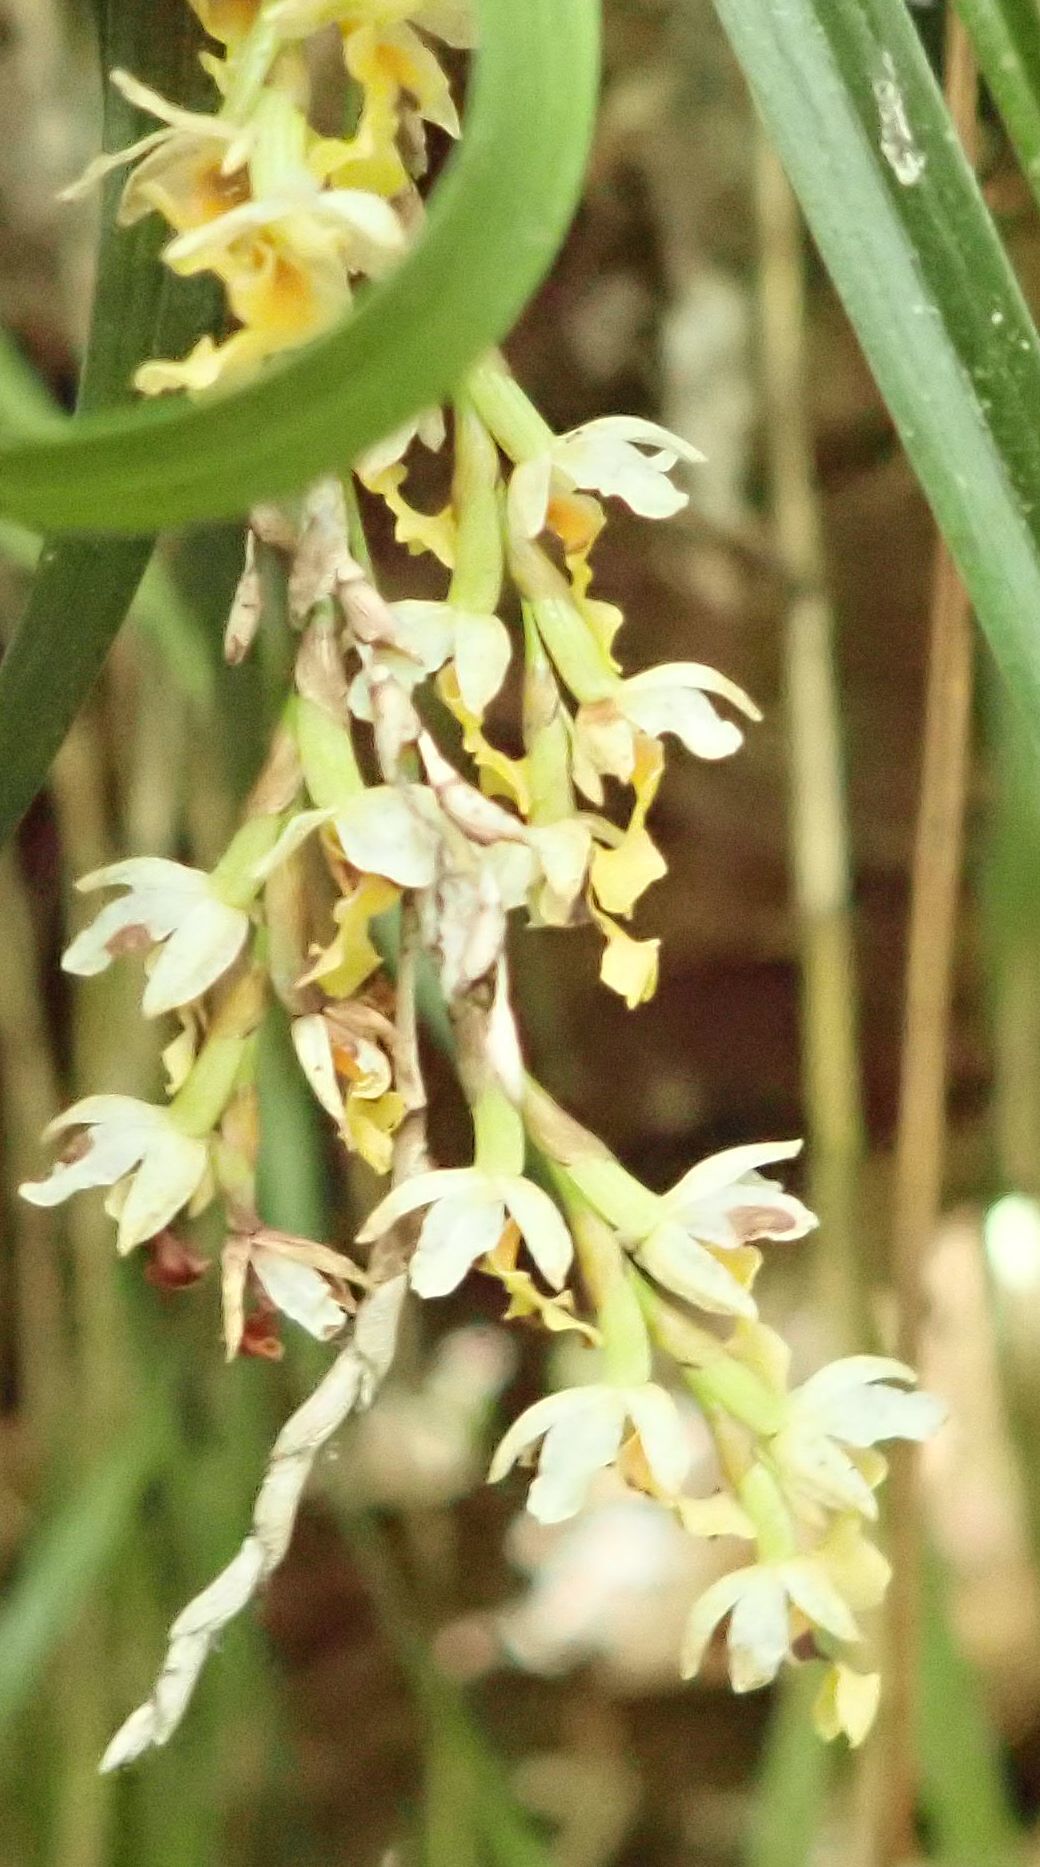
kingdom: Plantae
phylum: Tracheophyta
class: Liliopsida
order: Asparagales
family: Orchidaceae
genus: Earina
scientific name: Earina mucronata
